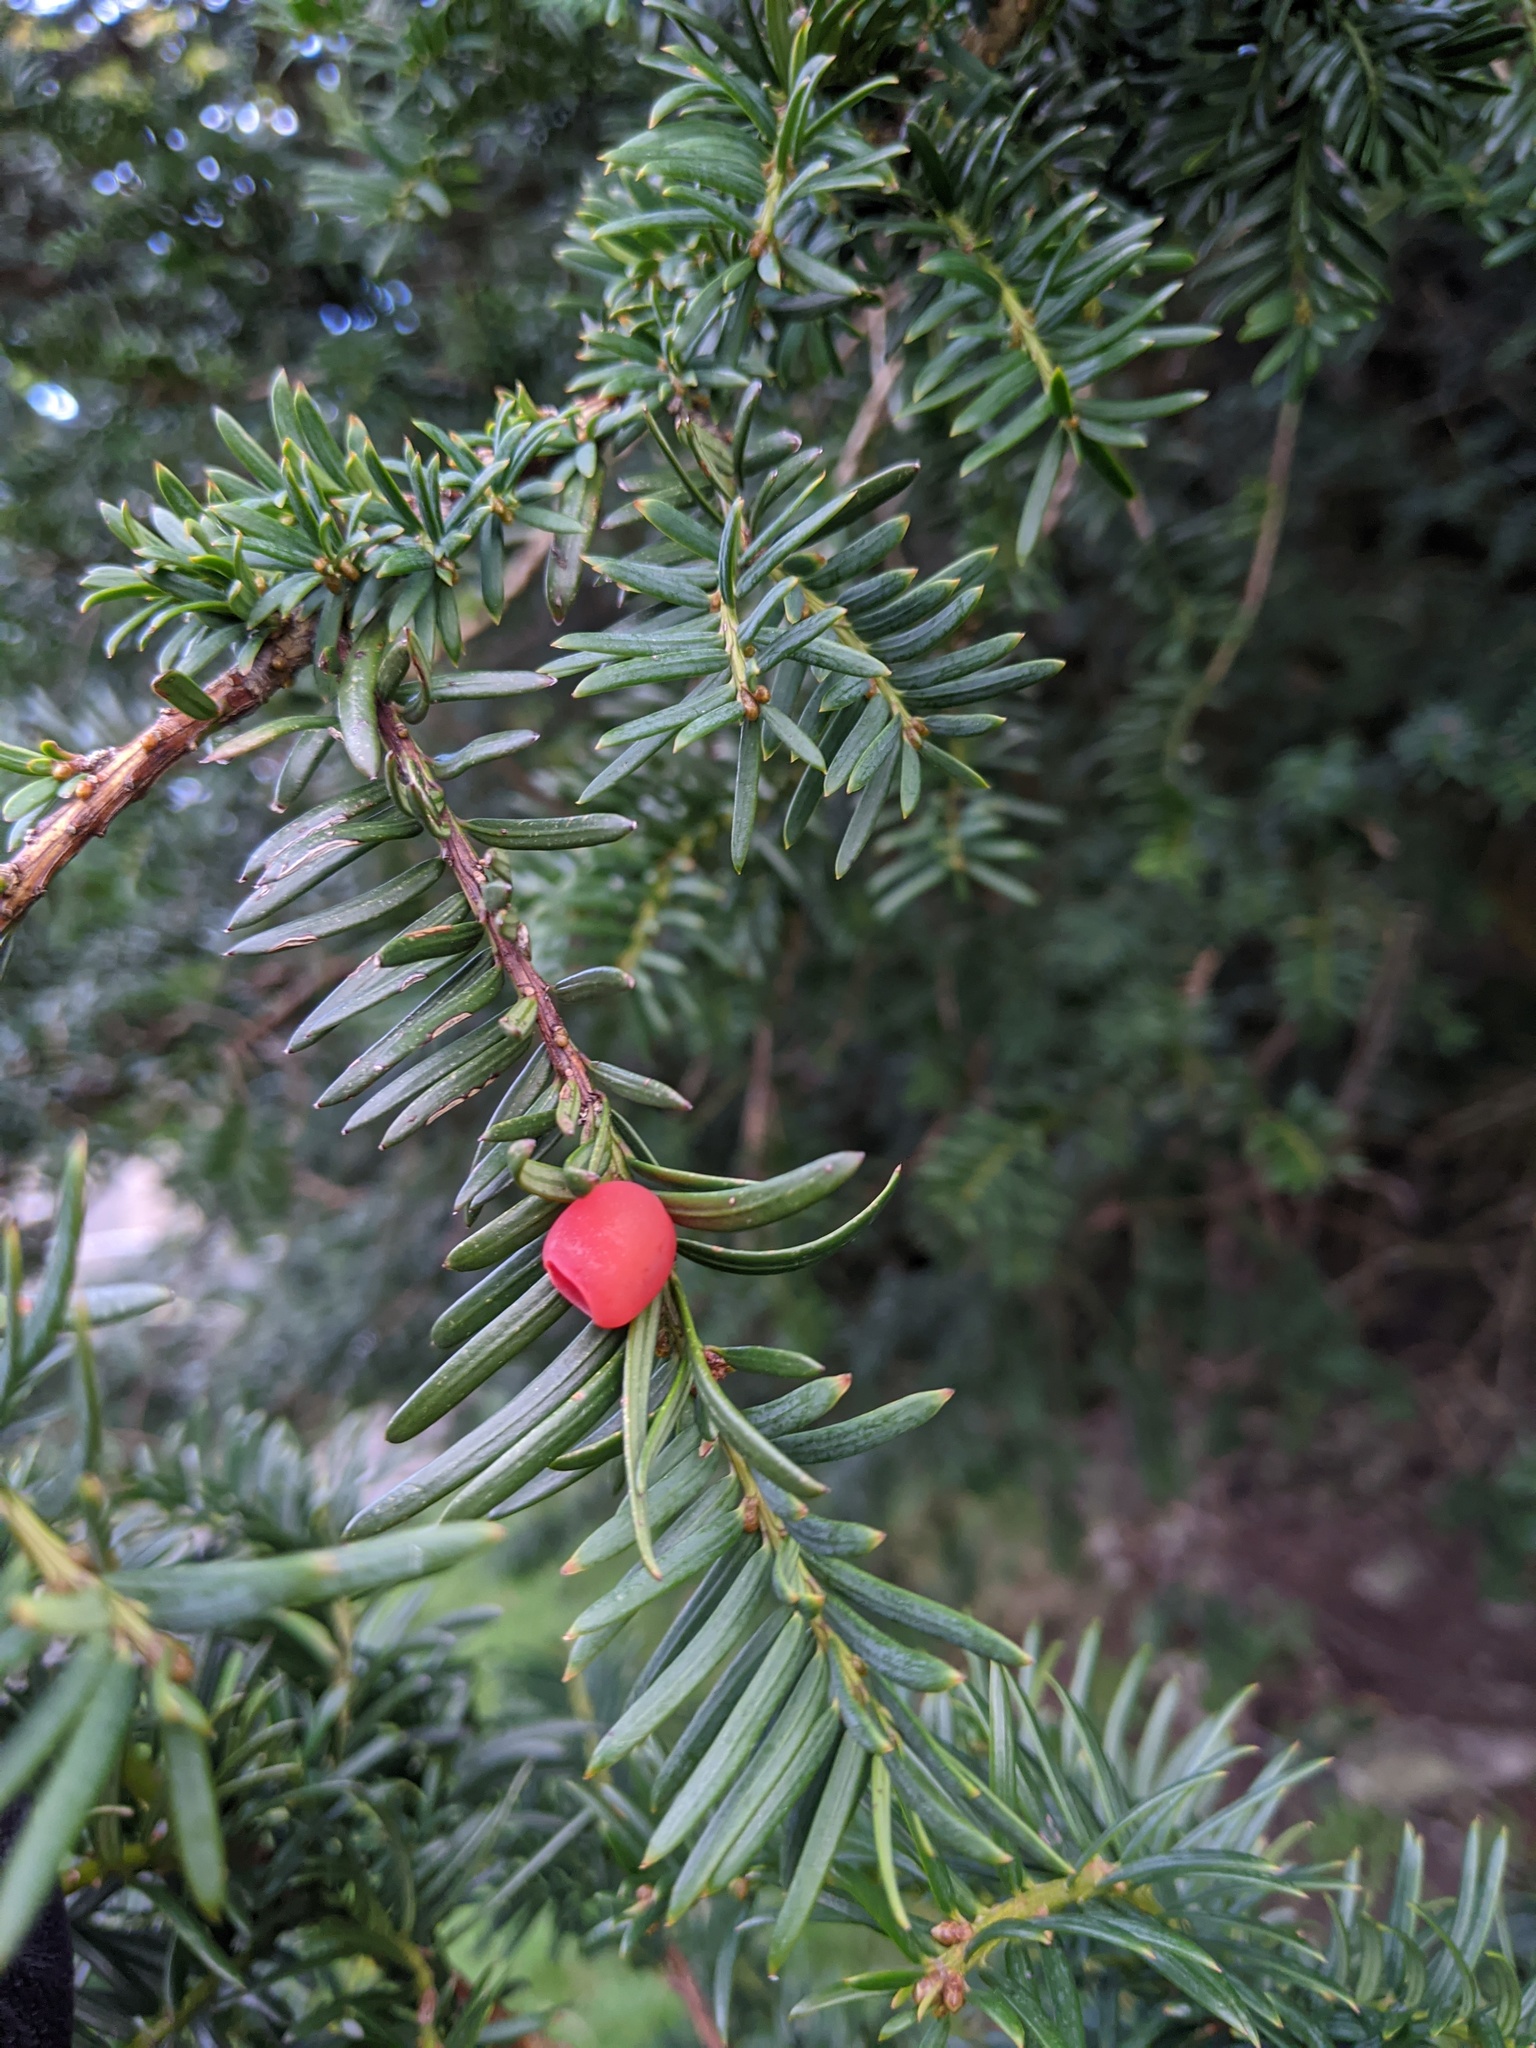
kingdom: Plantae
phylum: Tracheophyta
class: Pinopsida
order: Pinales
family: Taxaceae
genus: Taxus
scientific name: Taxus baccata
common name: Yew
